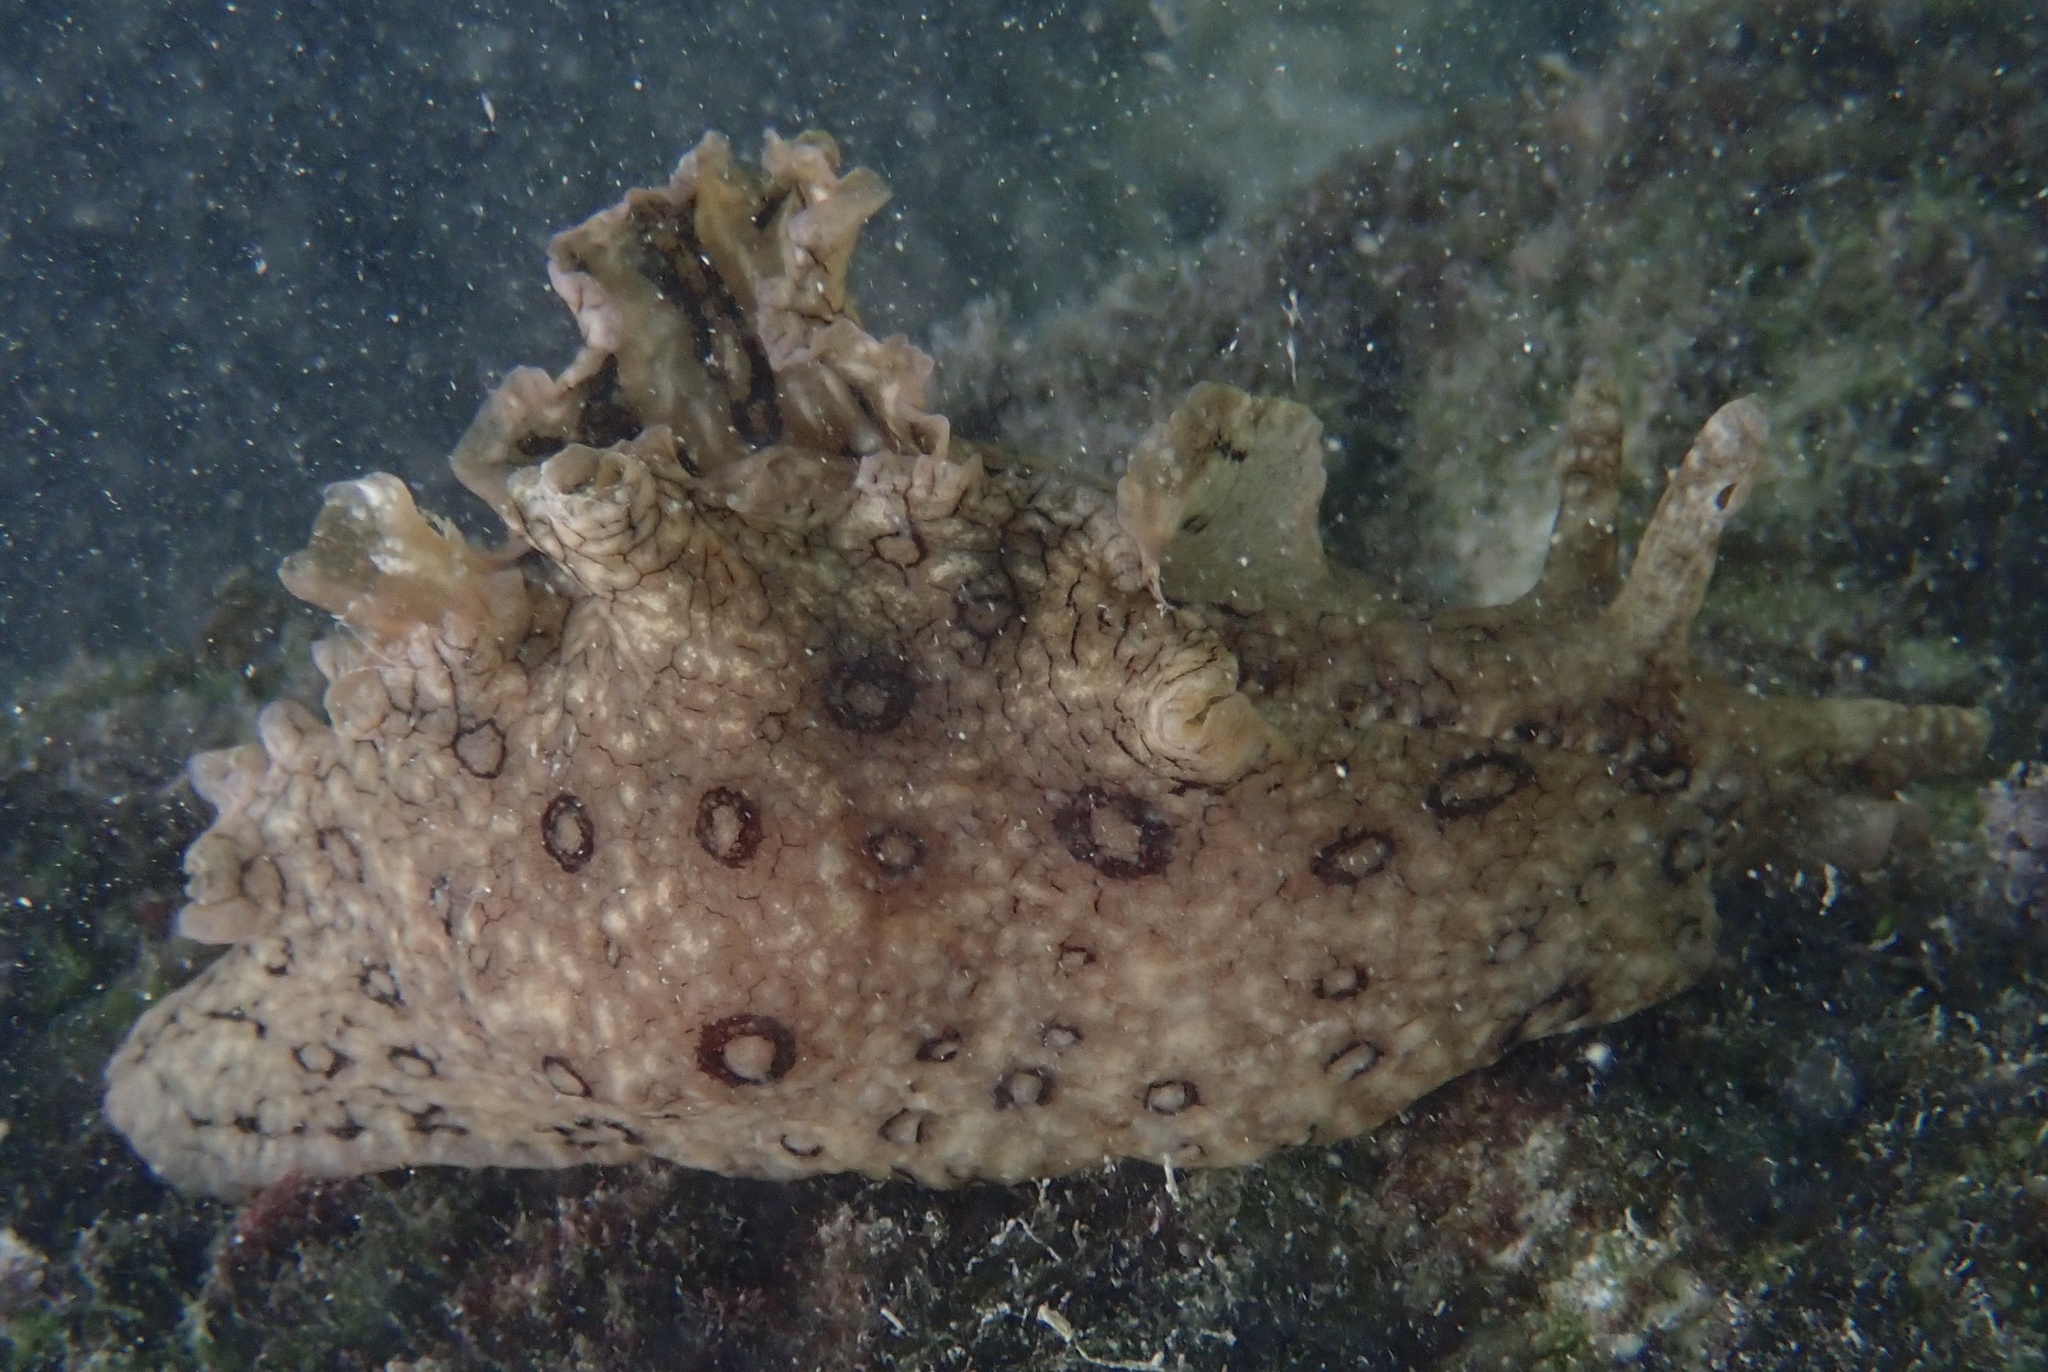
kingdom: Animalia
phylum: Mollusca
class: Gastropoda
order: Aplysiida
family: Aplysiidae
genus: Aplysia
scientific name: Aplysia dactylomela
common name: Large-spotted sea hare
